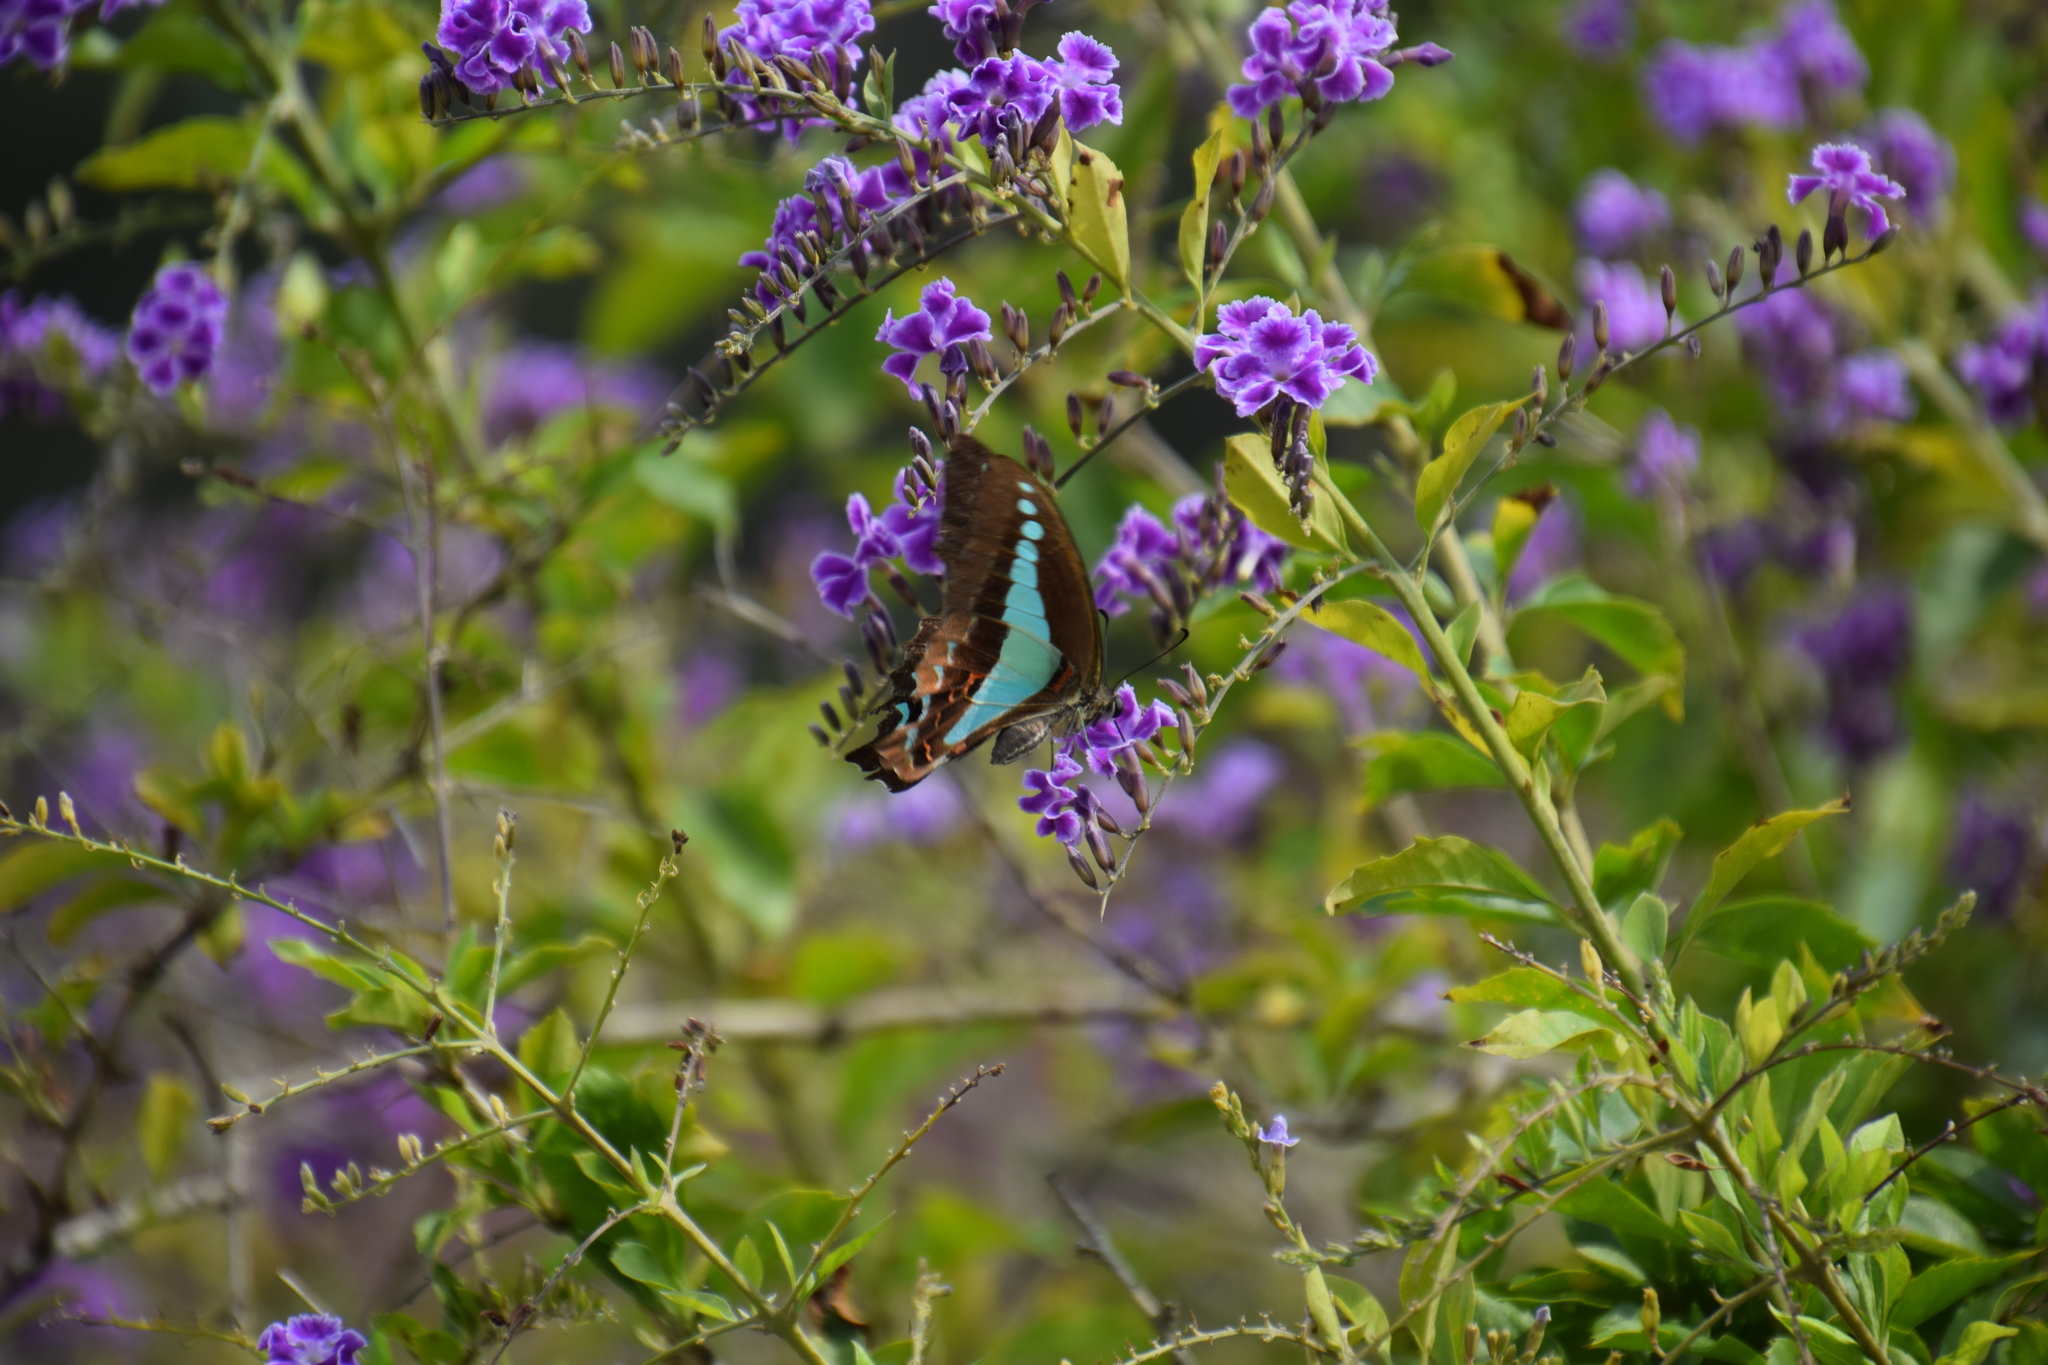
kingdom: Animalia
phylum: Arthropoda
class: Insecta
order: Lepidoptera
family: Papilionidae
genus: Graphium
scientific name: Graphium
